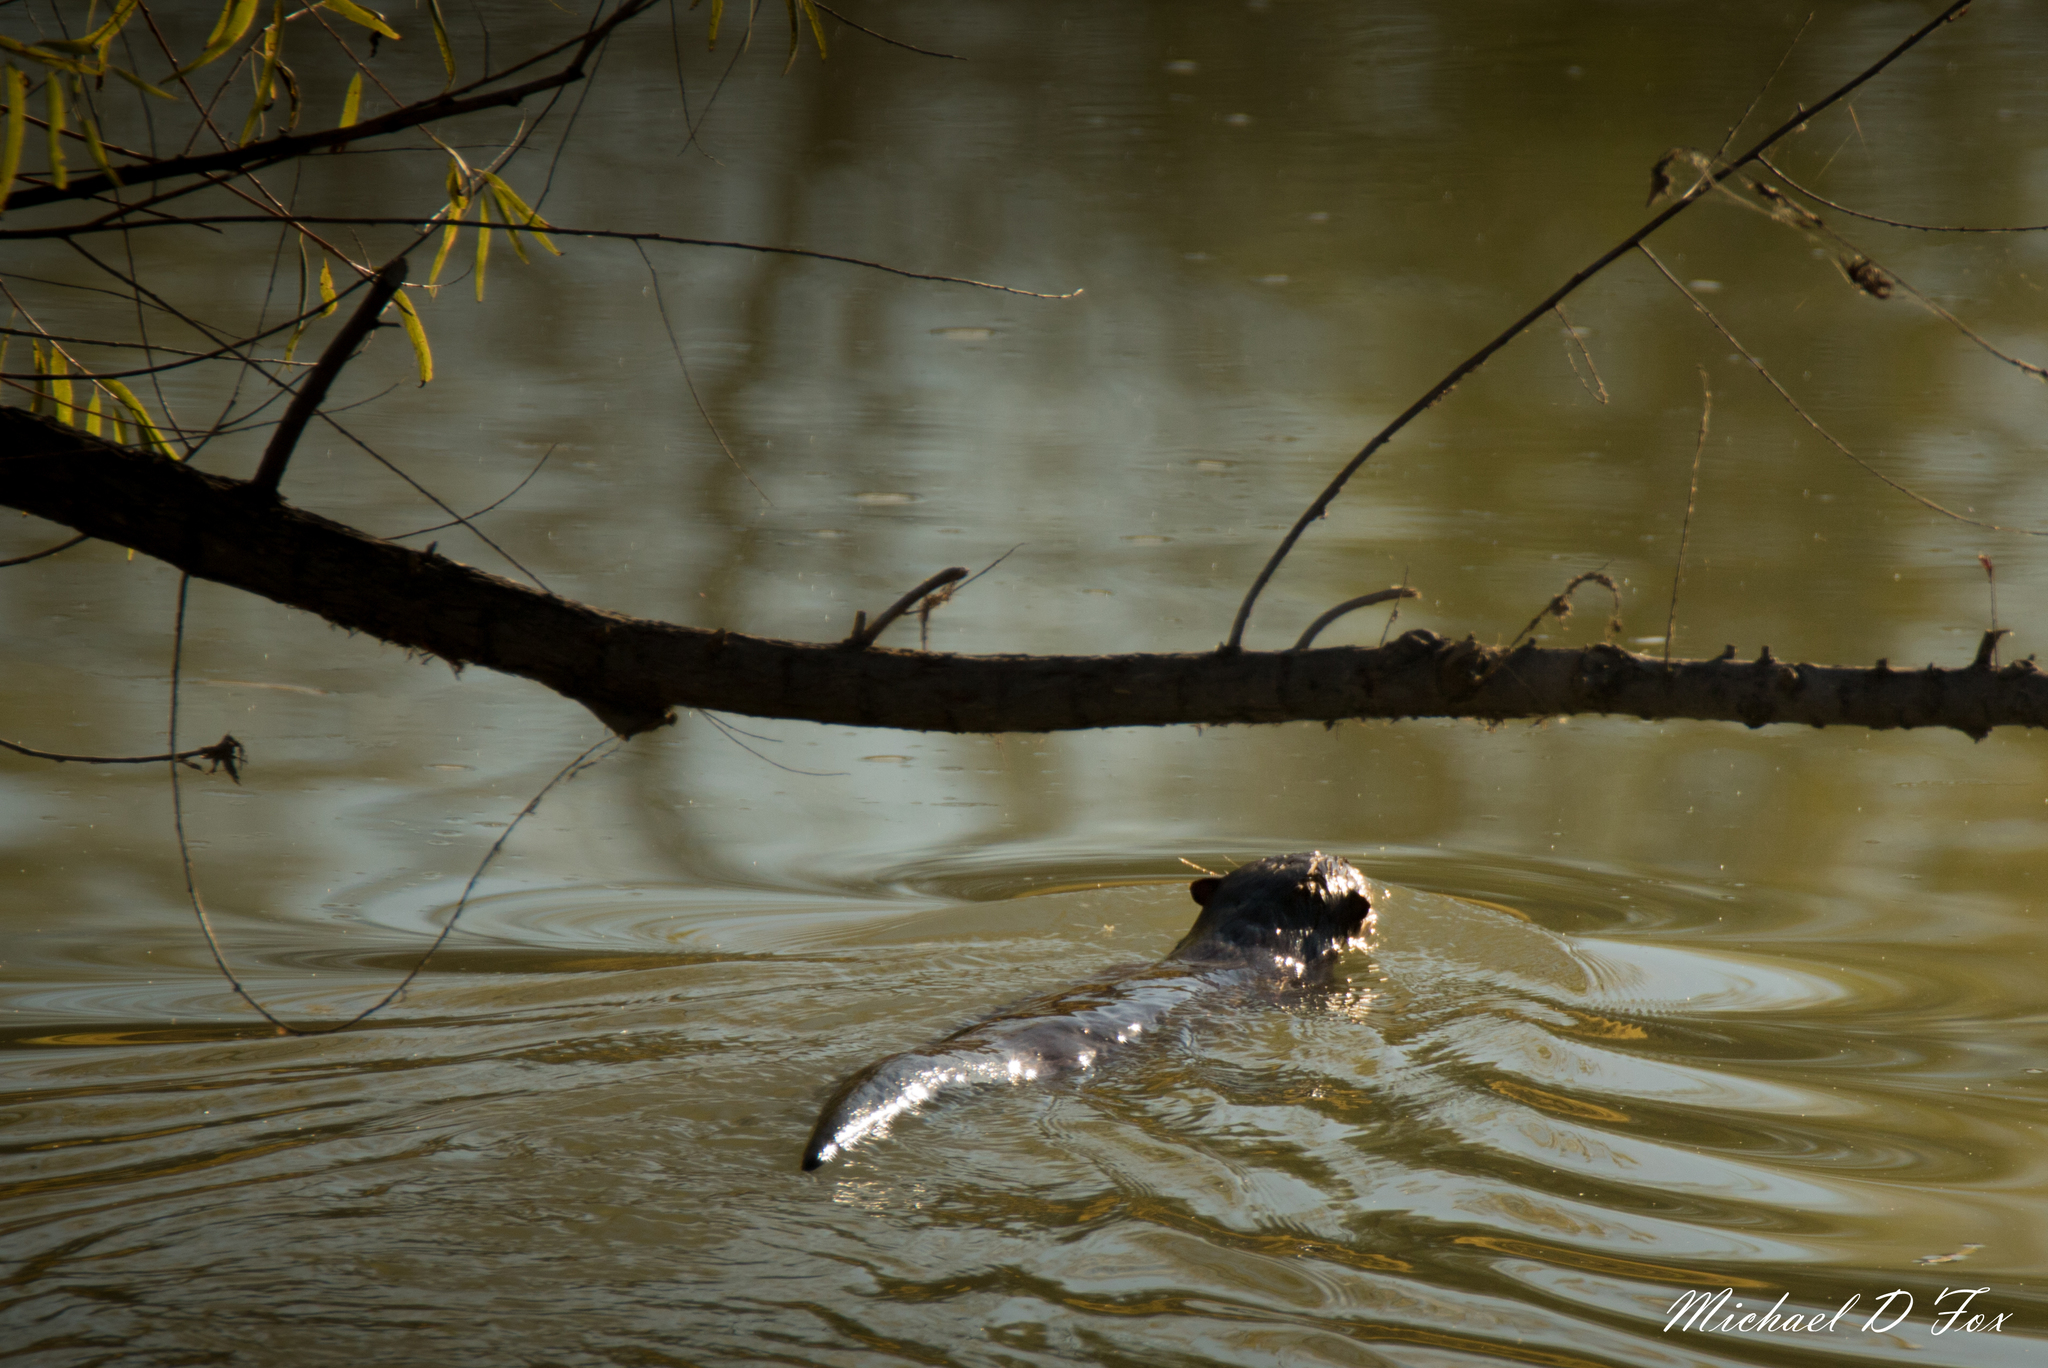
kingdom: Animalia
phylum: Chordata
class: Mammalia
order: Carnivora
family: Mustelidae
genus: Lontra
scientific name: Lontra canadensis
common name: North american river otter
